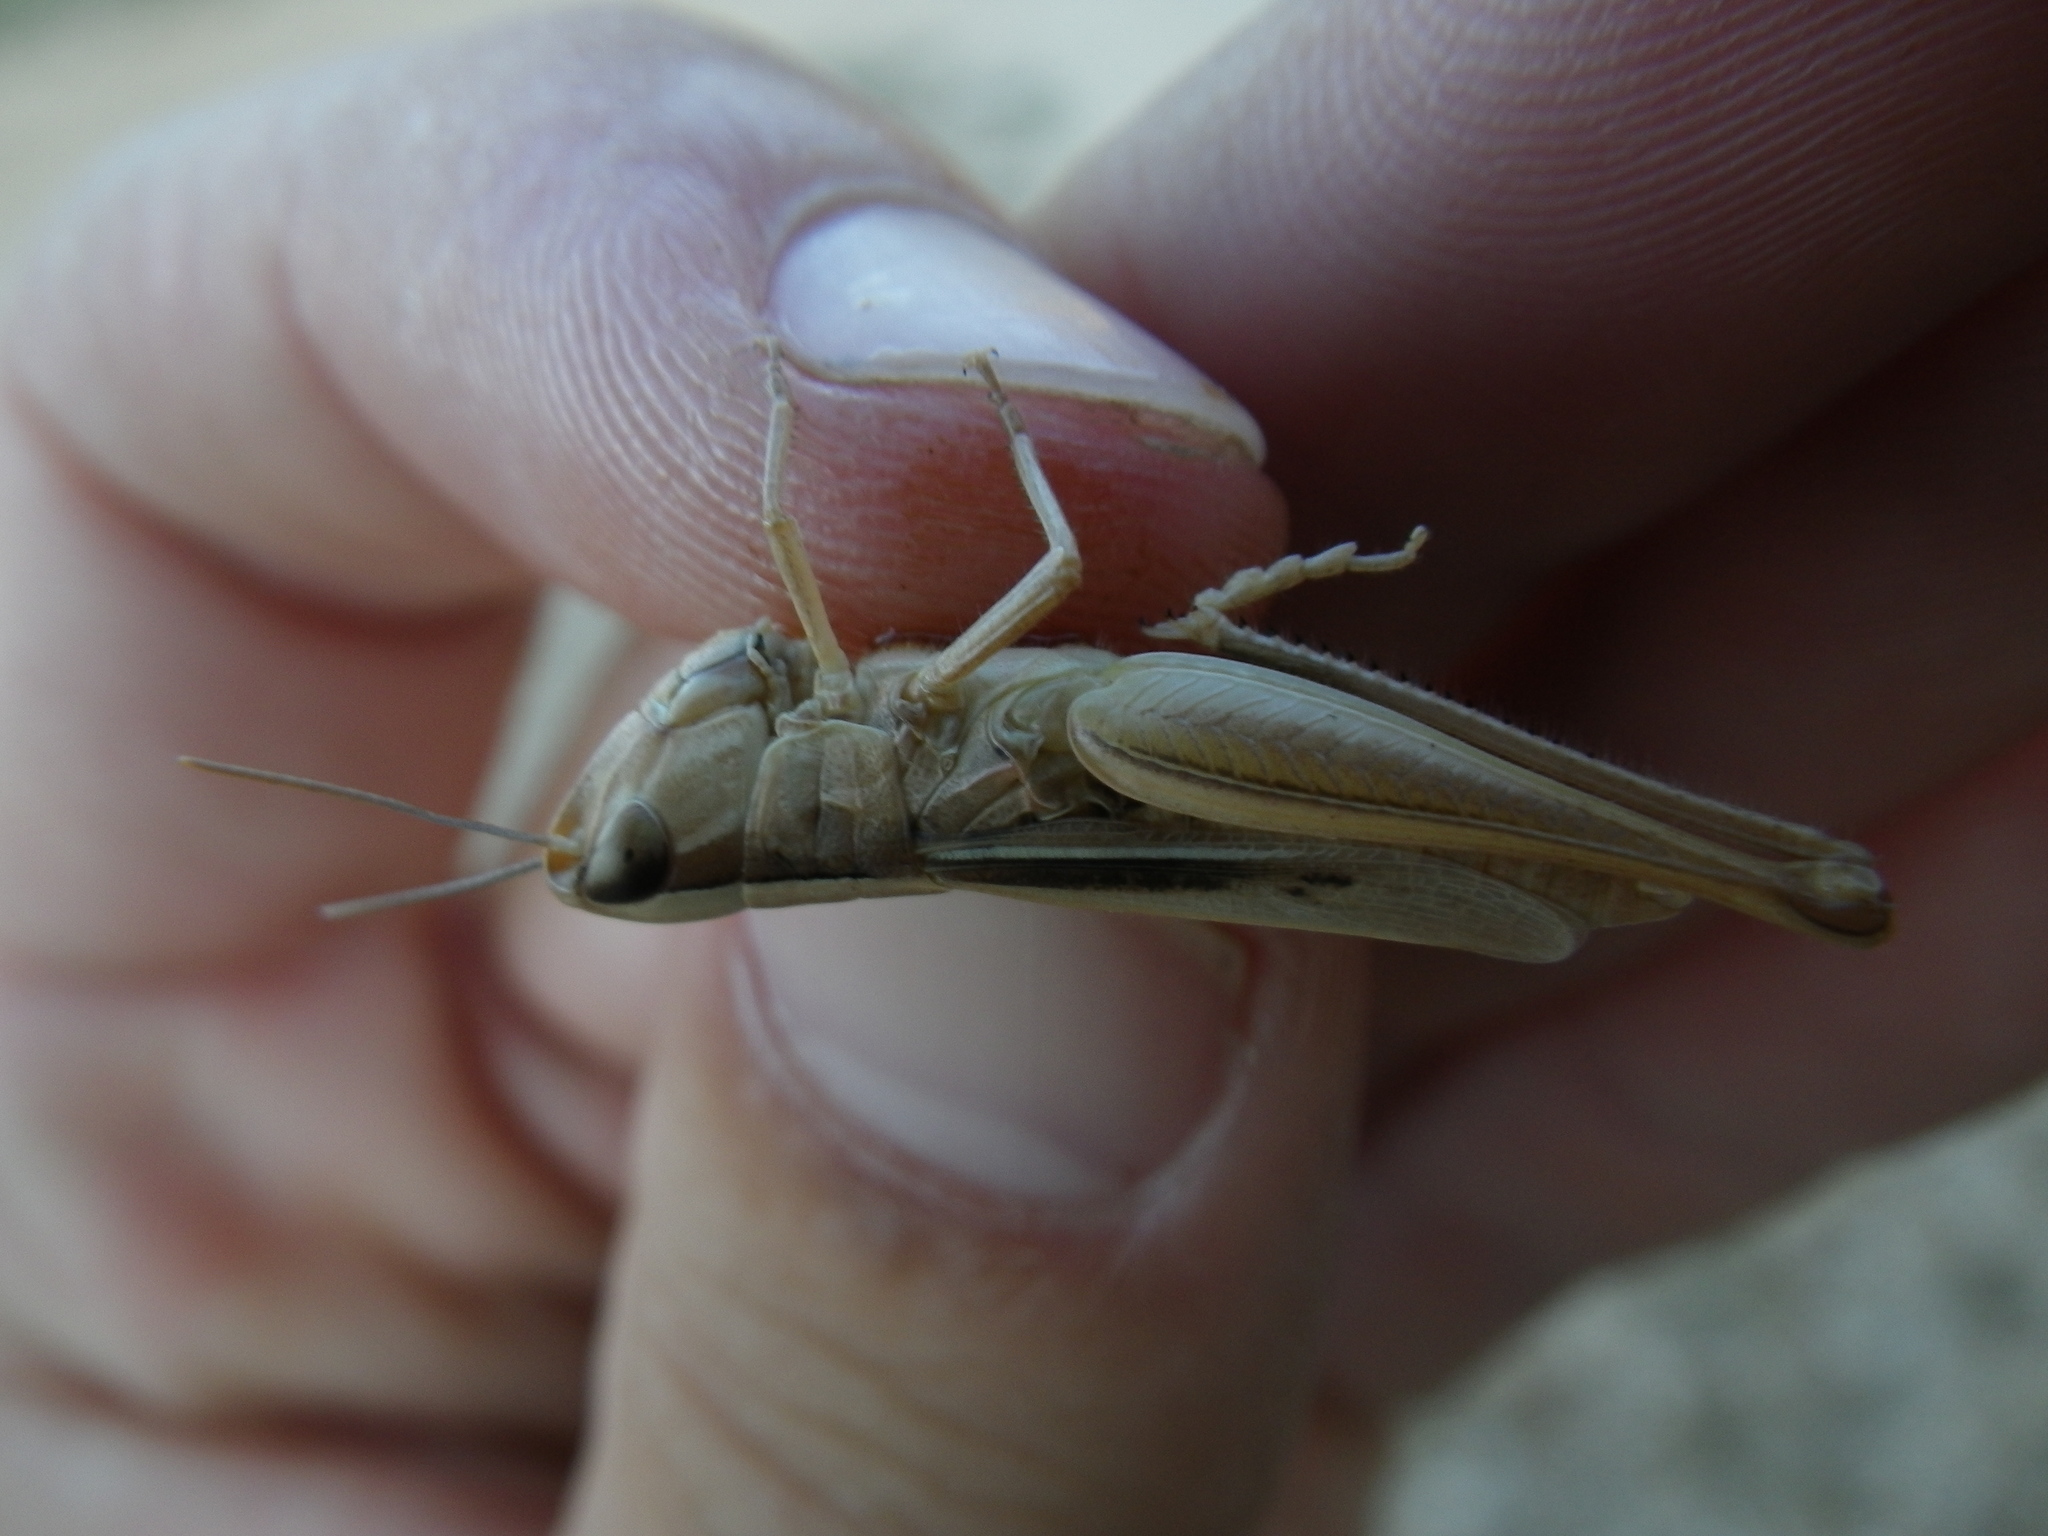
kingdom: Animalia
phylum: Arthropoda
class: Insecta
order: Orthoptera
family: Acrididae
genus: Euchorthippus
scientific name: Euchorthippus elegantulus
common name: Elegant straw grasshopper
